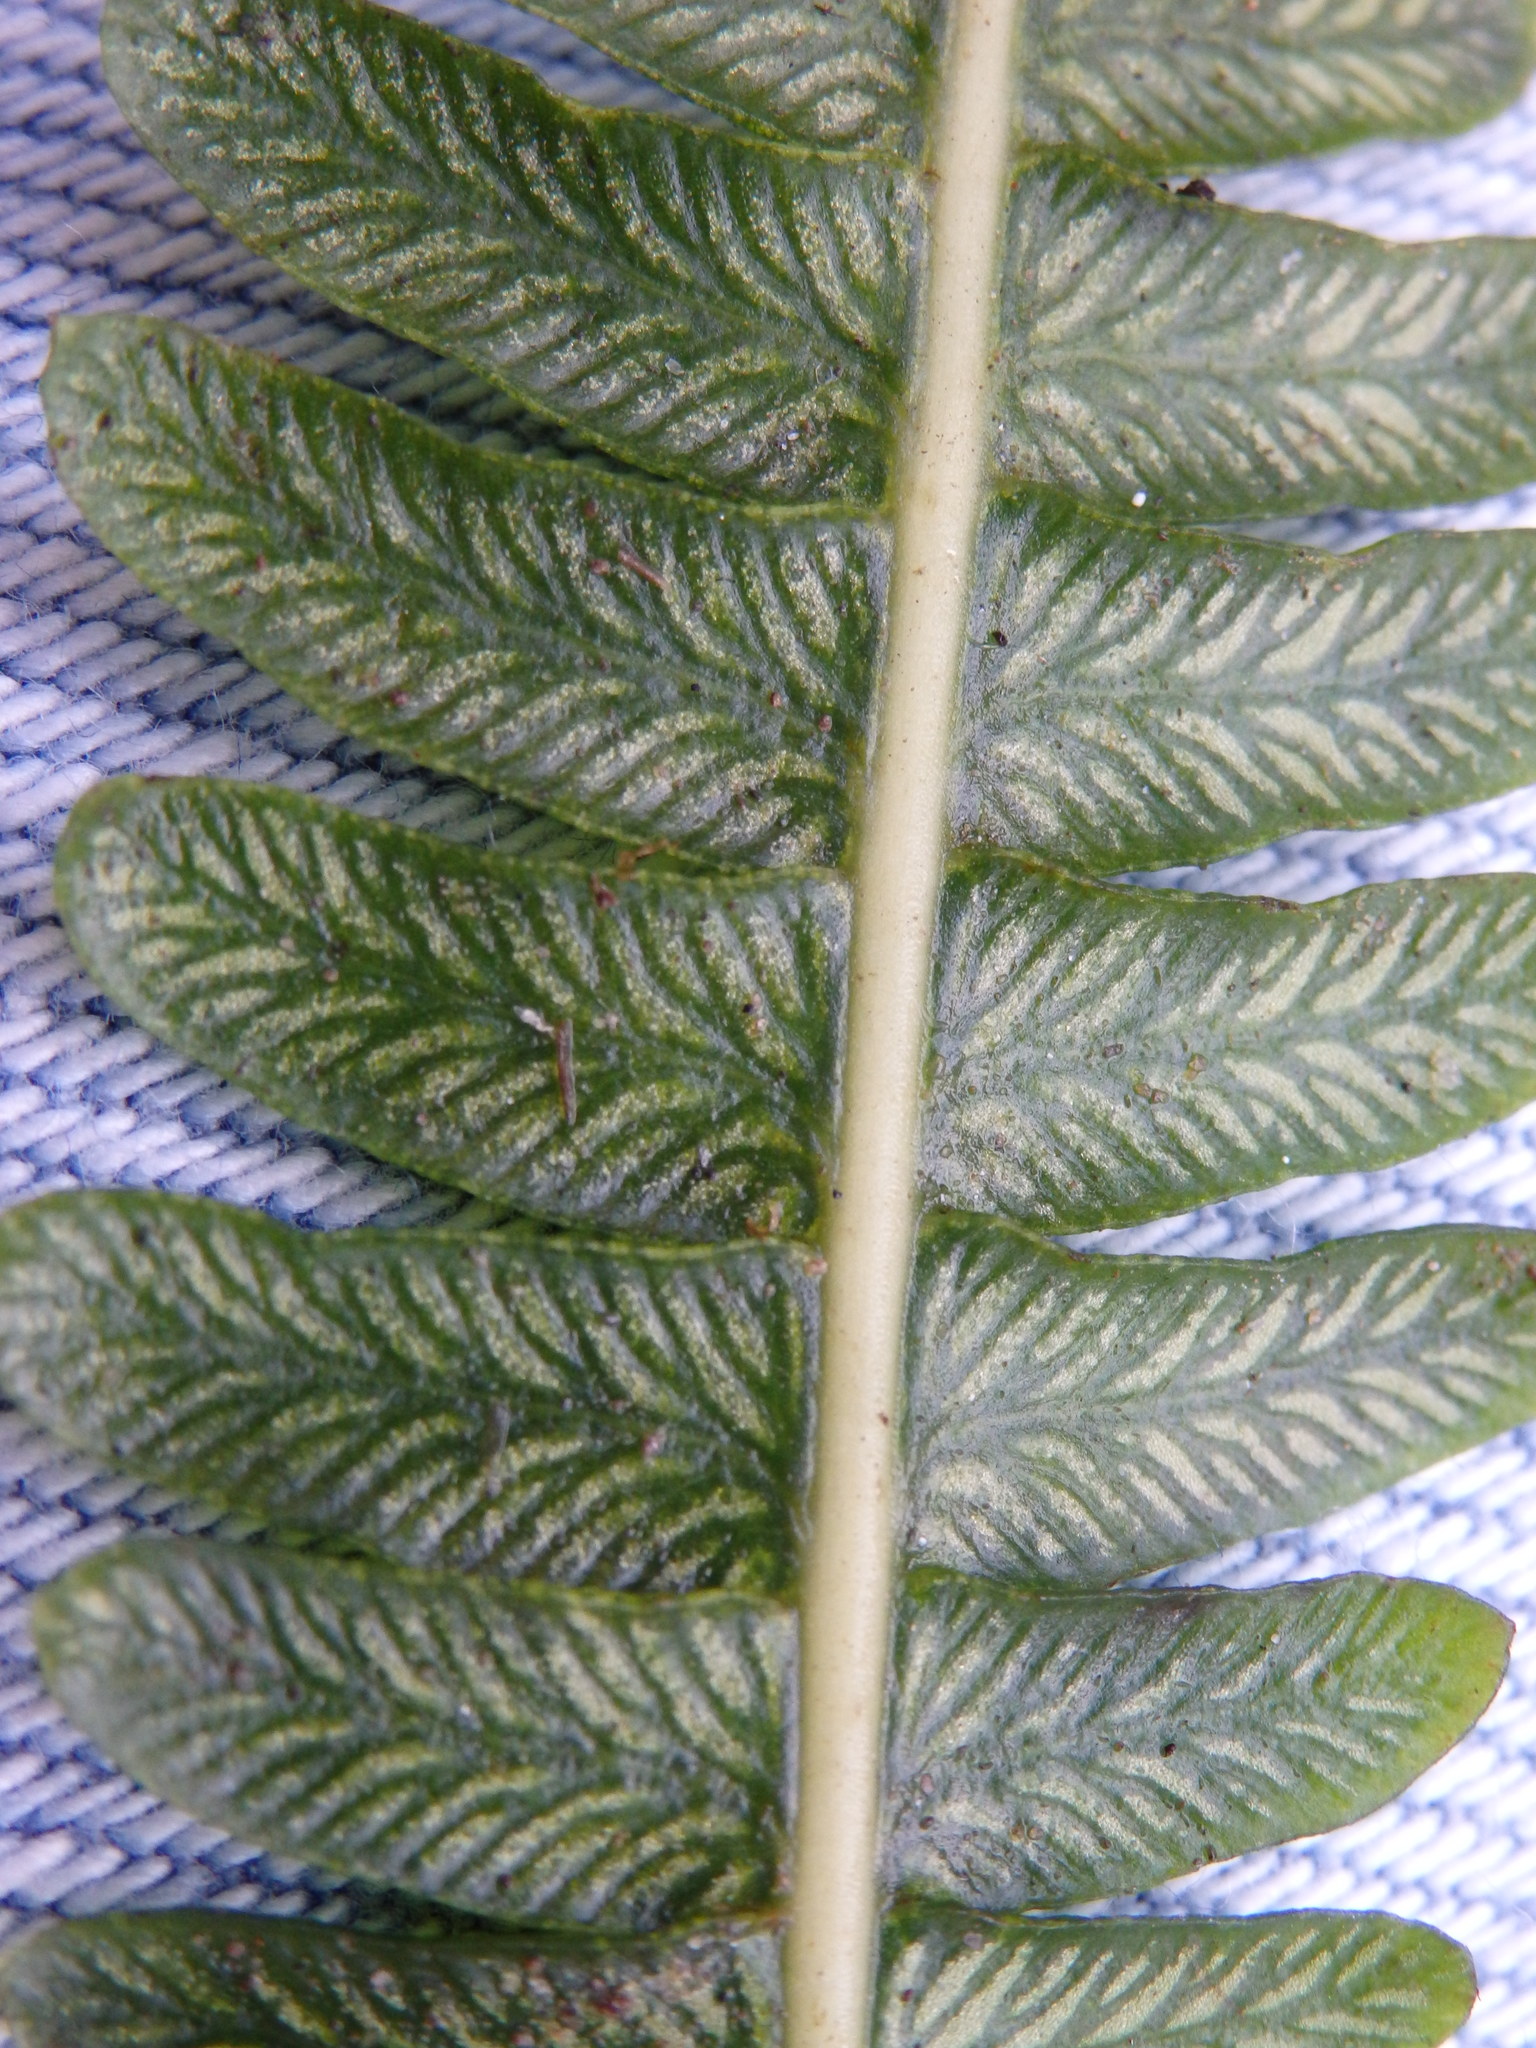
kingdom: Plantae
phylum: Tracheophyta
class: Polypodiopsida
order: Polypodiales
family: Blechnaceae
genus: Struthiopteris
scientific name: Struthiopteris spicant
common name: Deer fern
